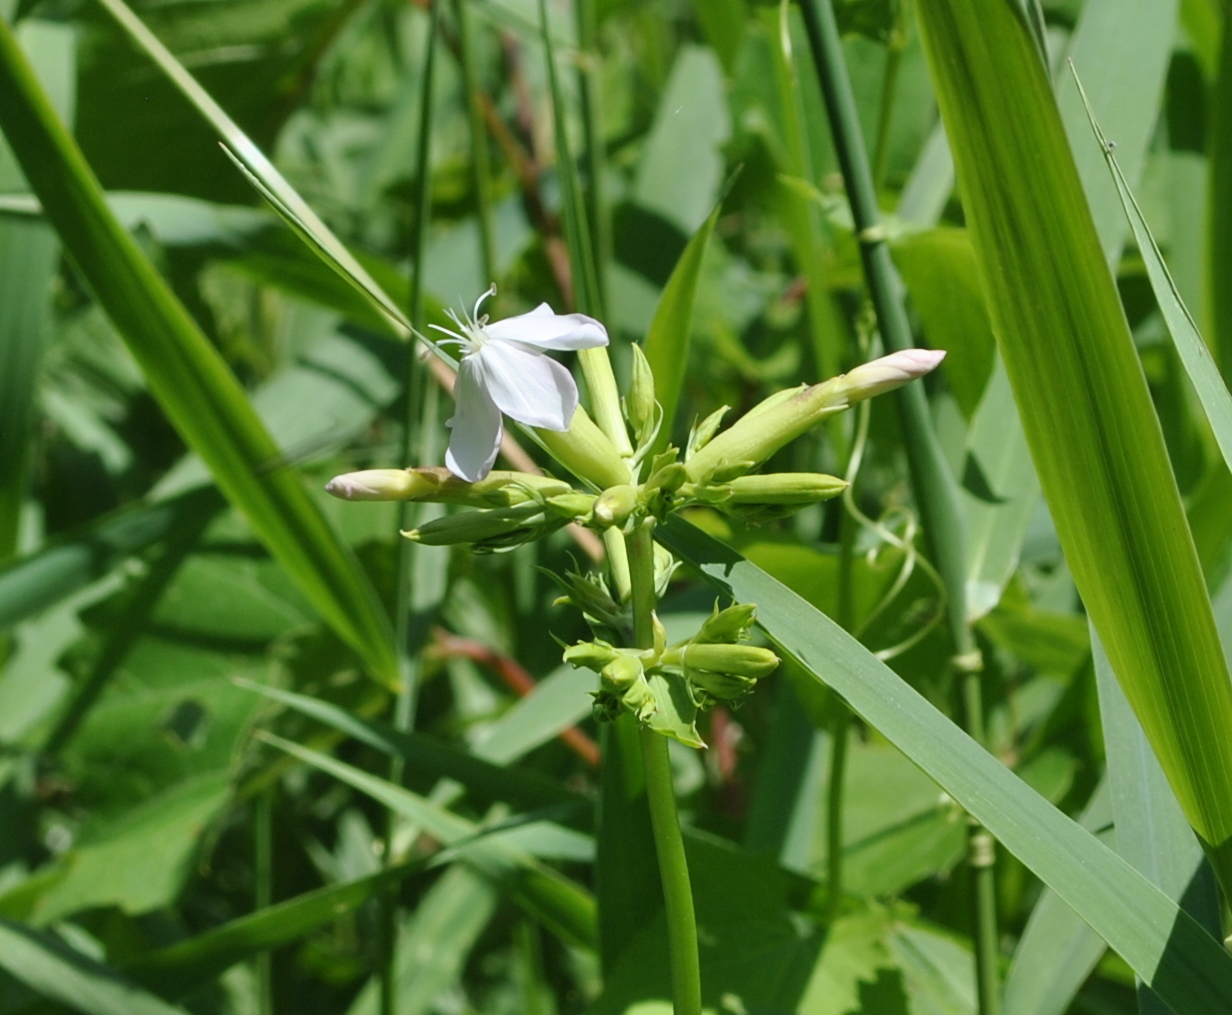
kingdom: Plantae
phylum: Tracheophyta
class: Magnoliopsida
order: Caryophyllales
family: Caryophyllaceae
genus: Saponaria
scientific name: Saponaria officinalis
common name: Soapwort
